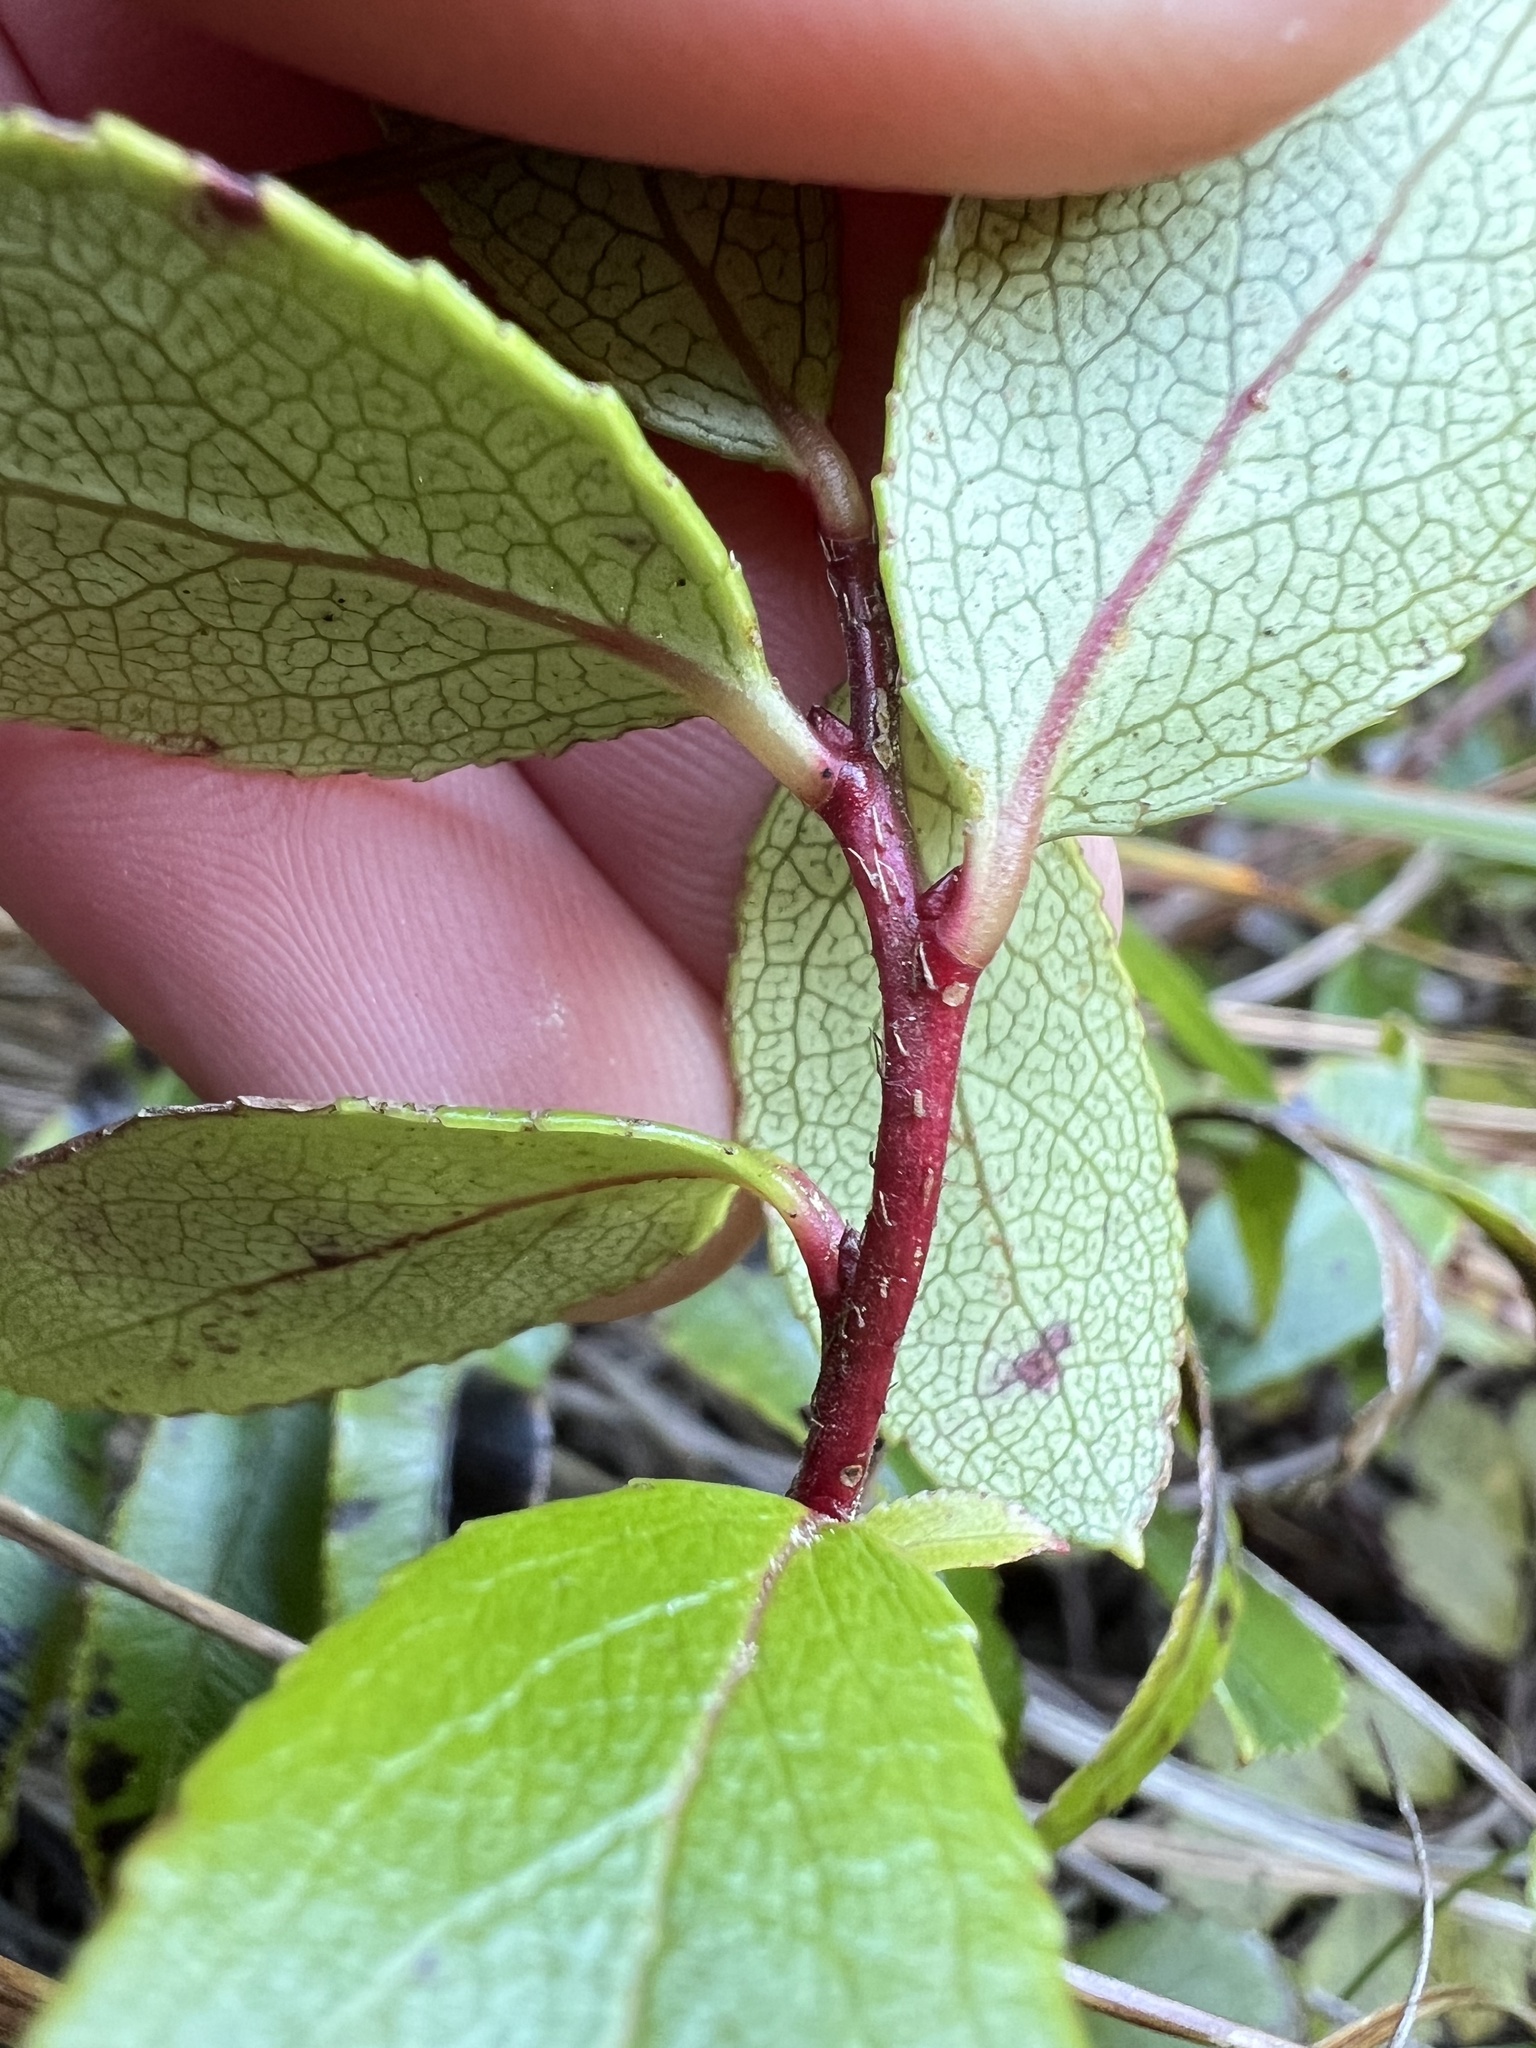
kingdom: Plantae
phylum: Tracheophyta
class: Magnoliopsida
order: Ericales
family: Ericaceae
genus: Gaultheria
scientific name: Gaultheria paniculata
